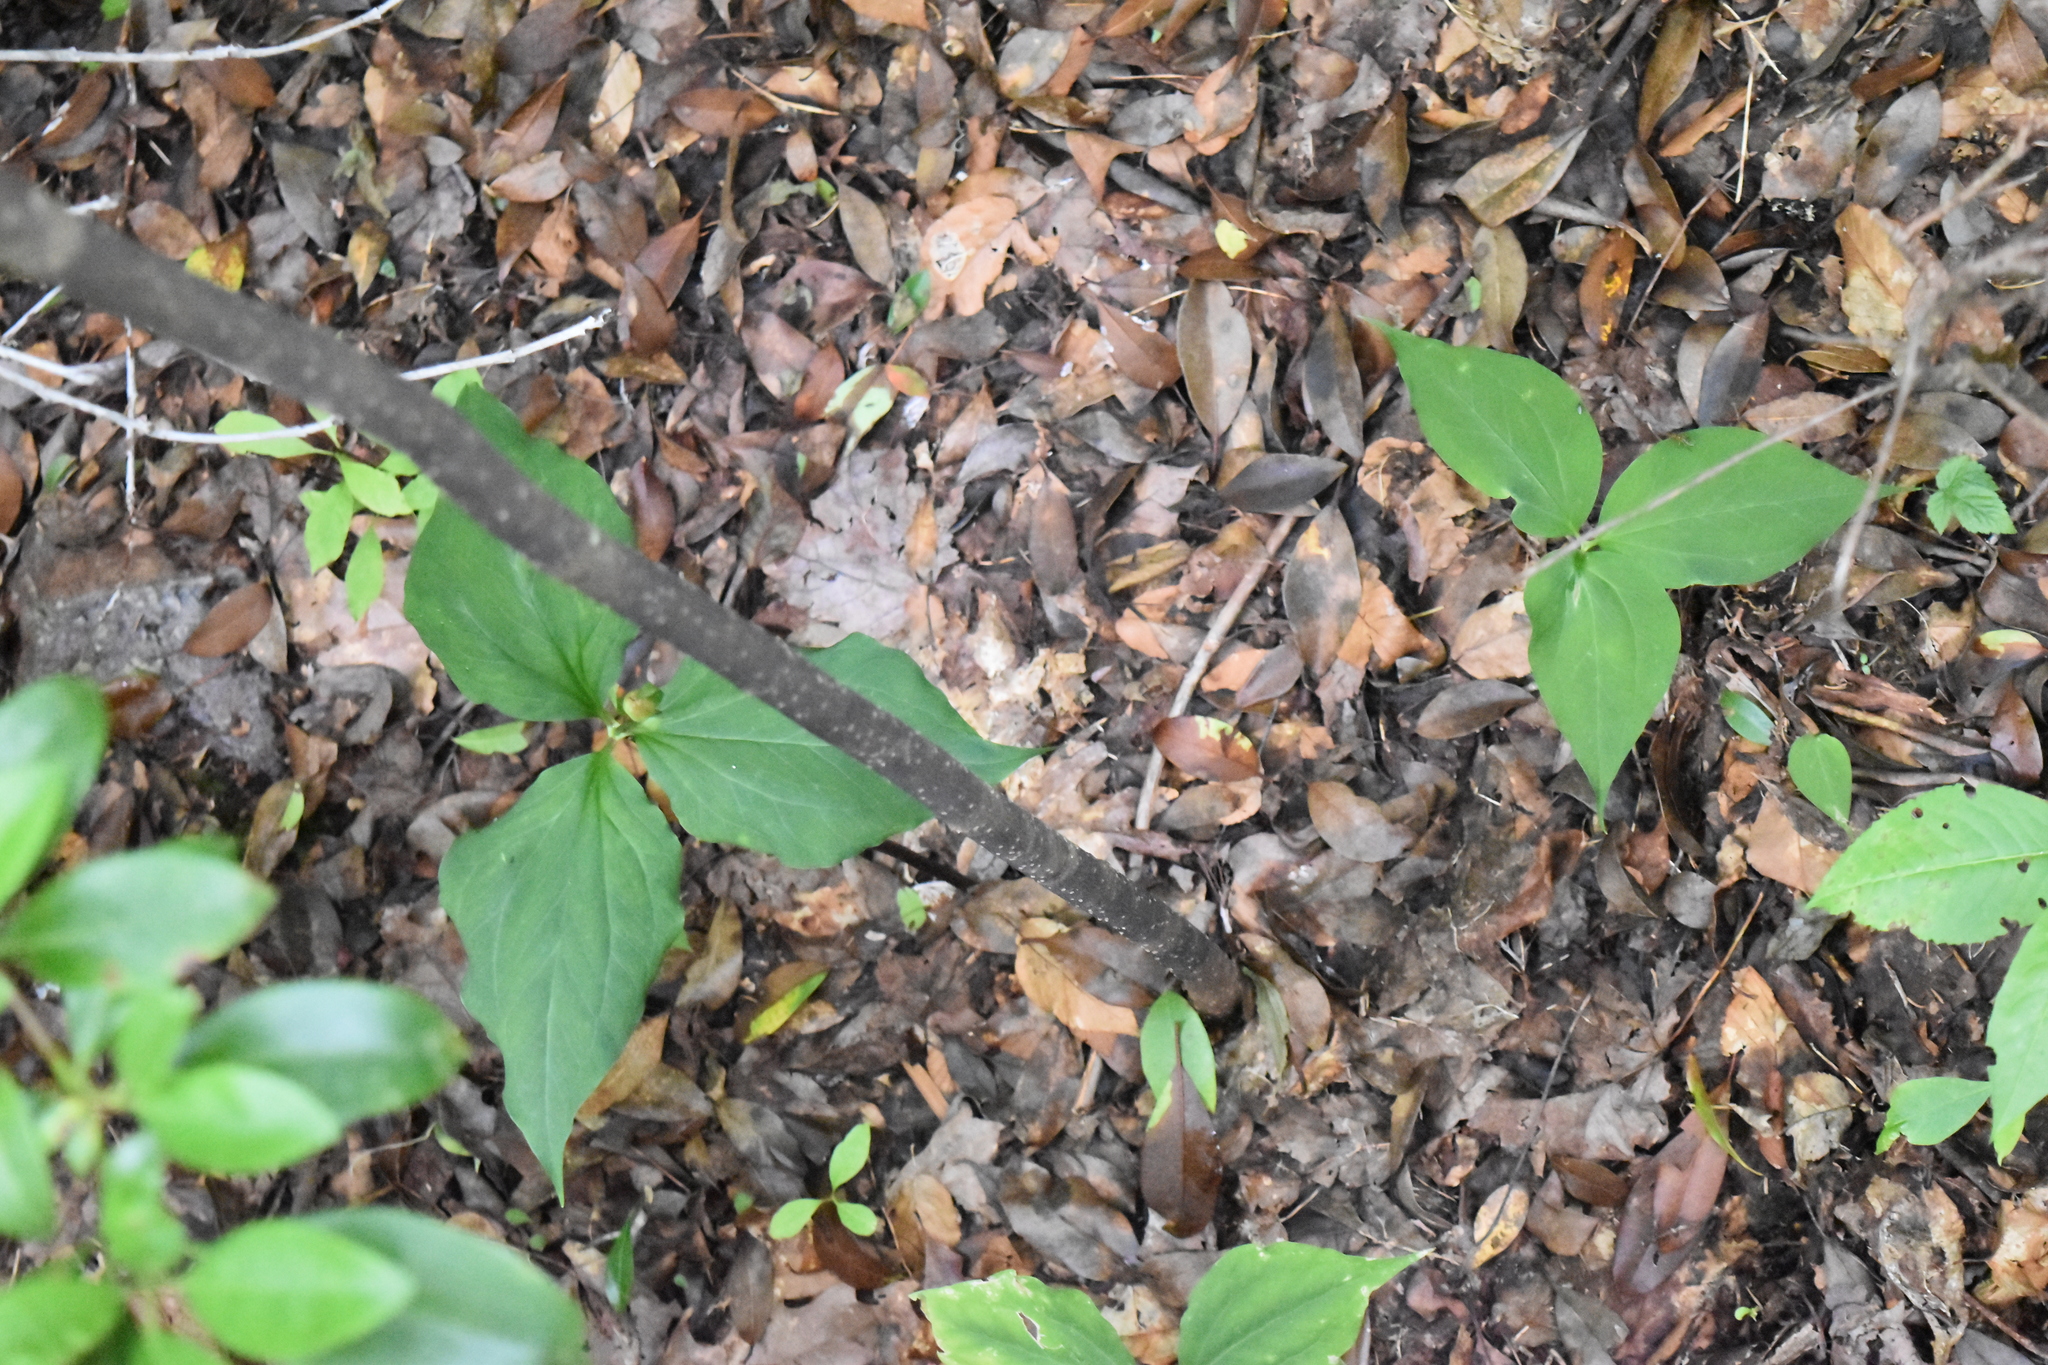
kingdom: Plantae
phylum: Tracheophyta
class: Liliopsida
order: Liliales
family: Melanthiaceae
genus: Trillium
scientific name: Trillium undulatum
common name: Paint trillium
